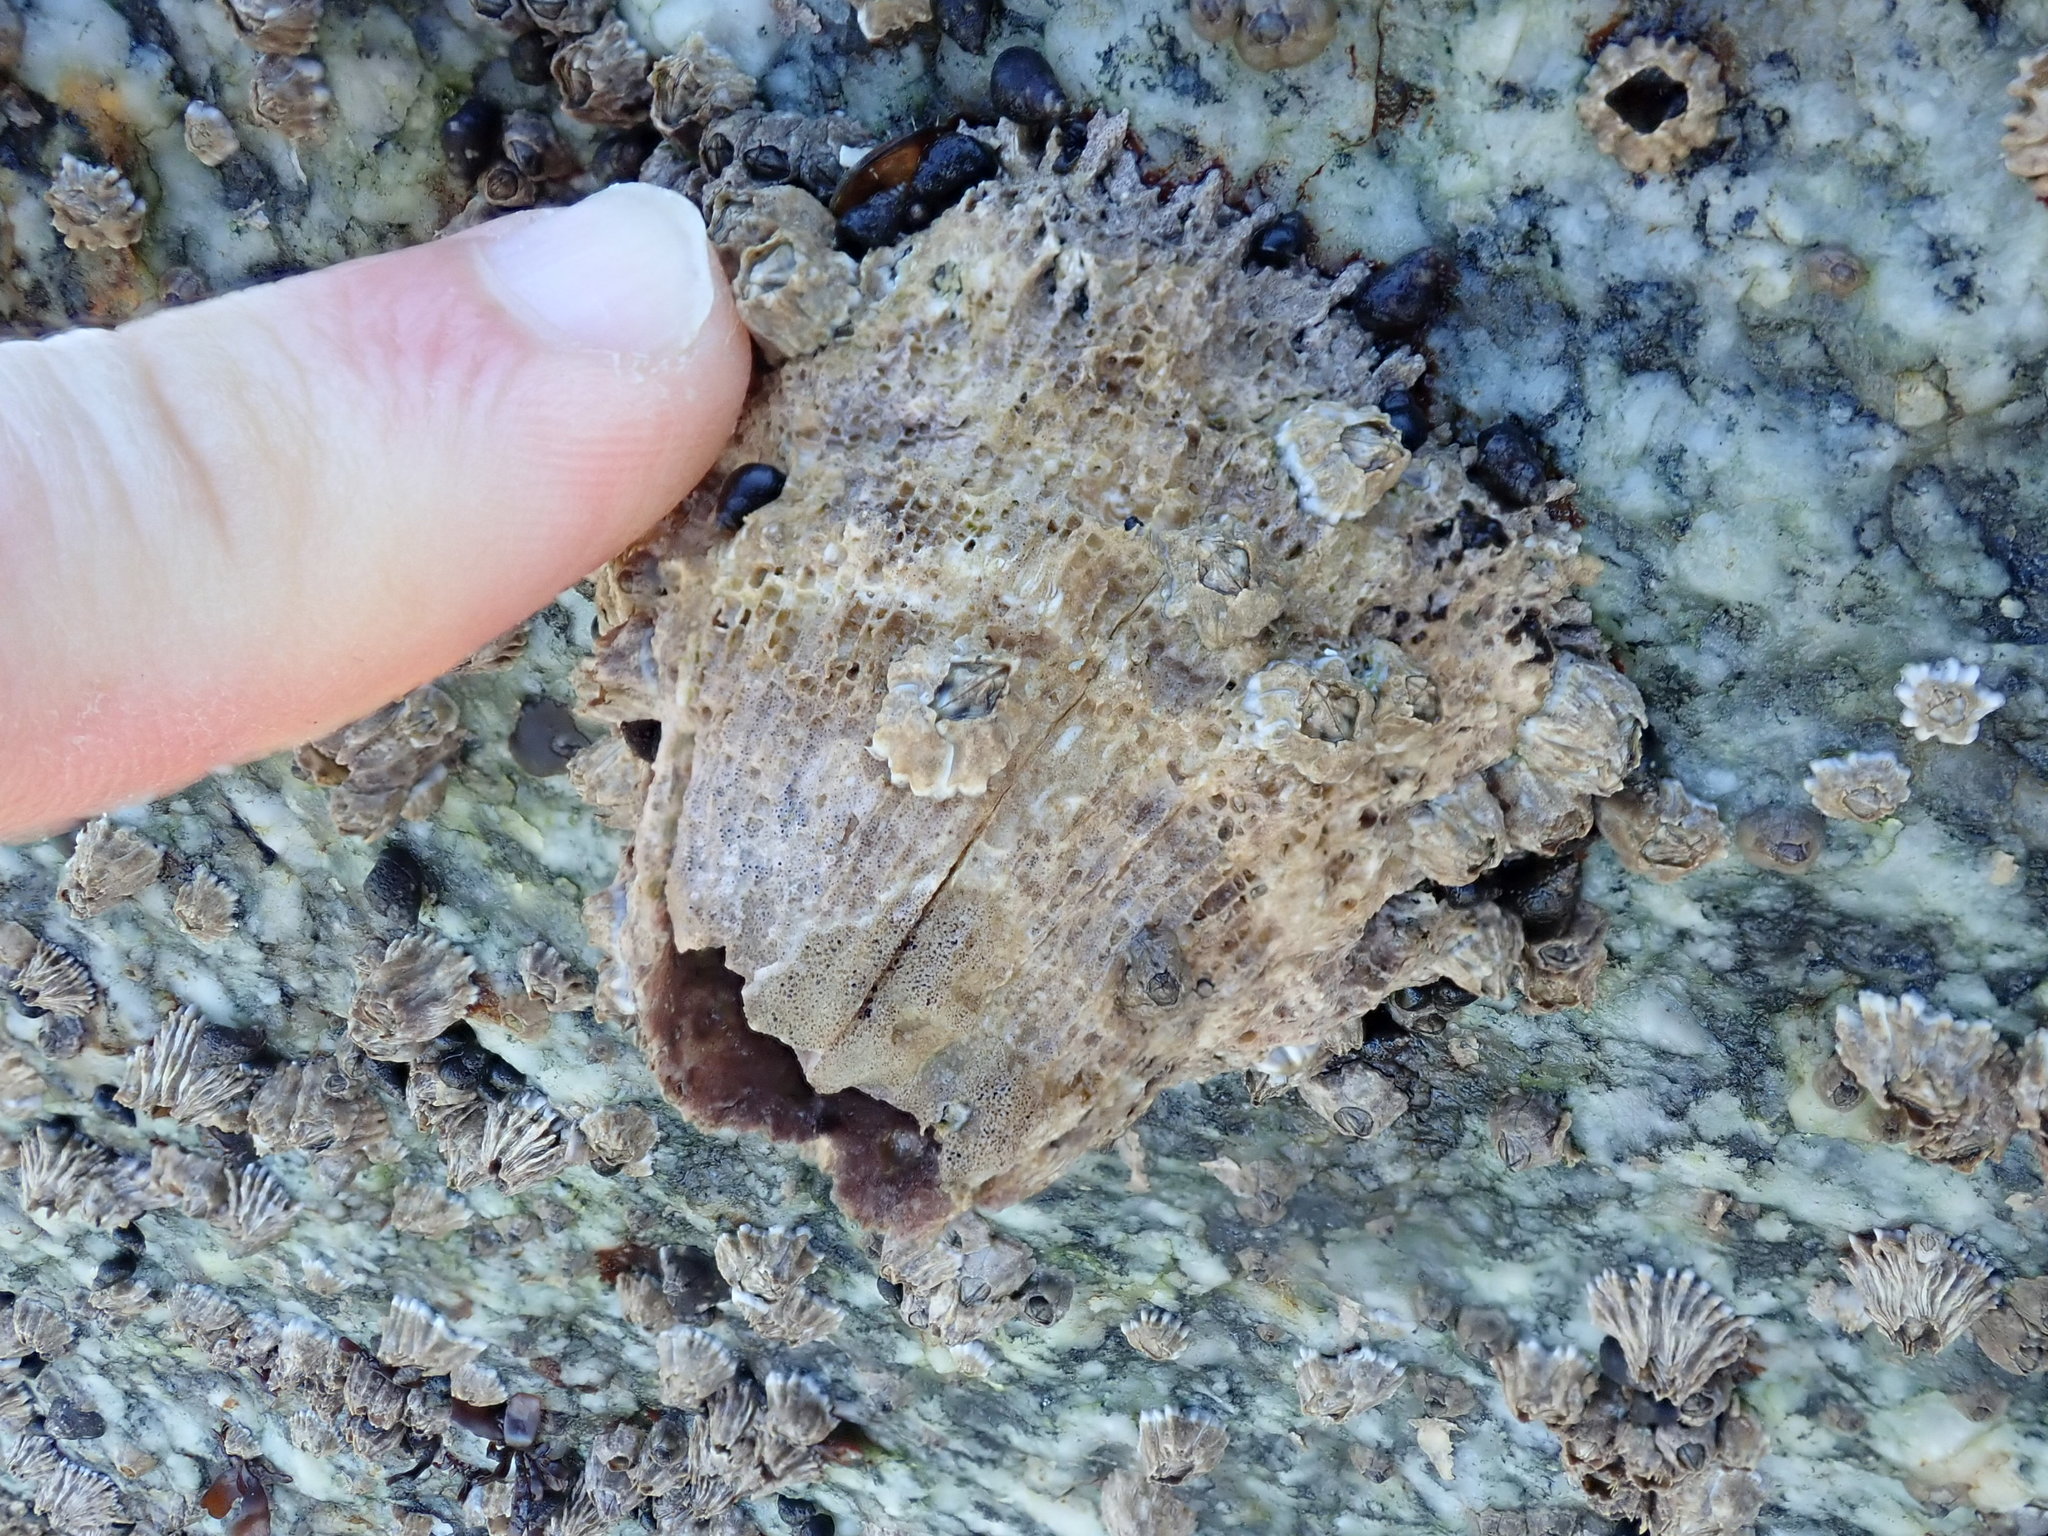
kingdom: Animalia
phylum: Arthropoda
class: Maxillopoda
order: Sessilia
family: Archaeobalanidae
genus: Semibalanus
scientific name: Semibalanus cariosus
